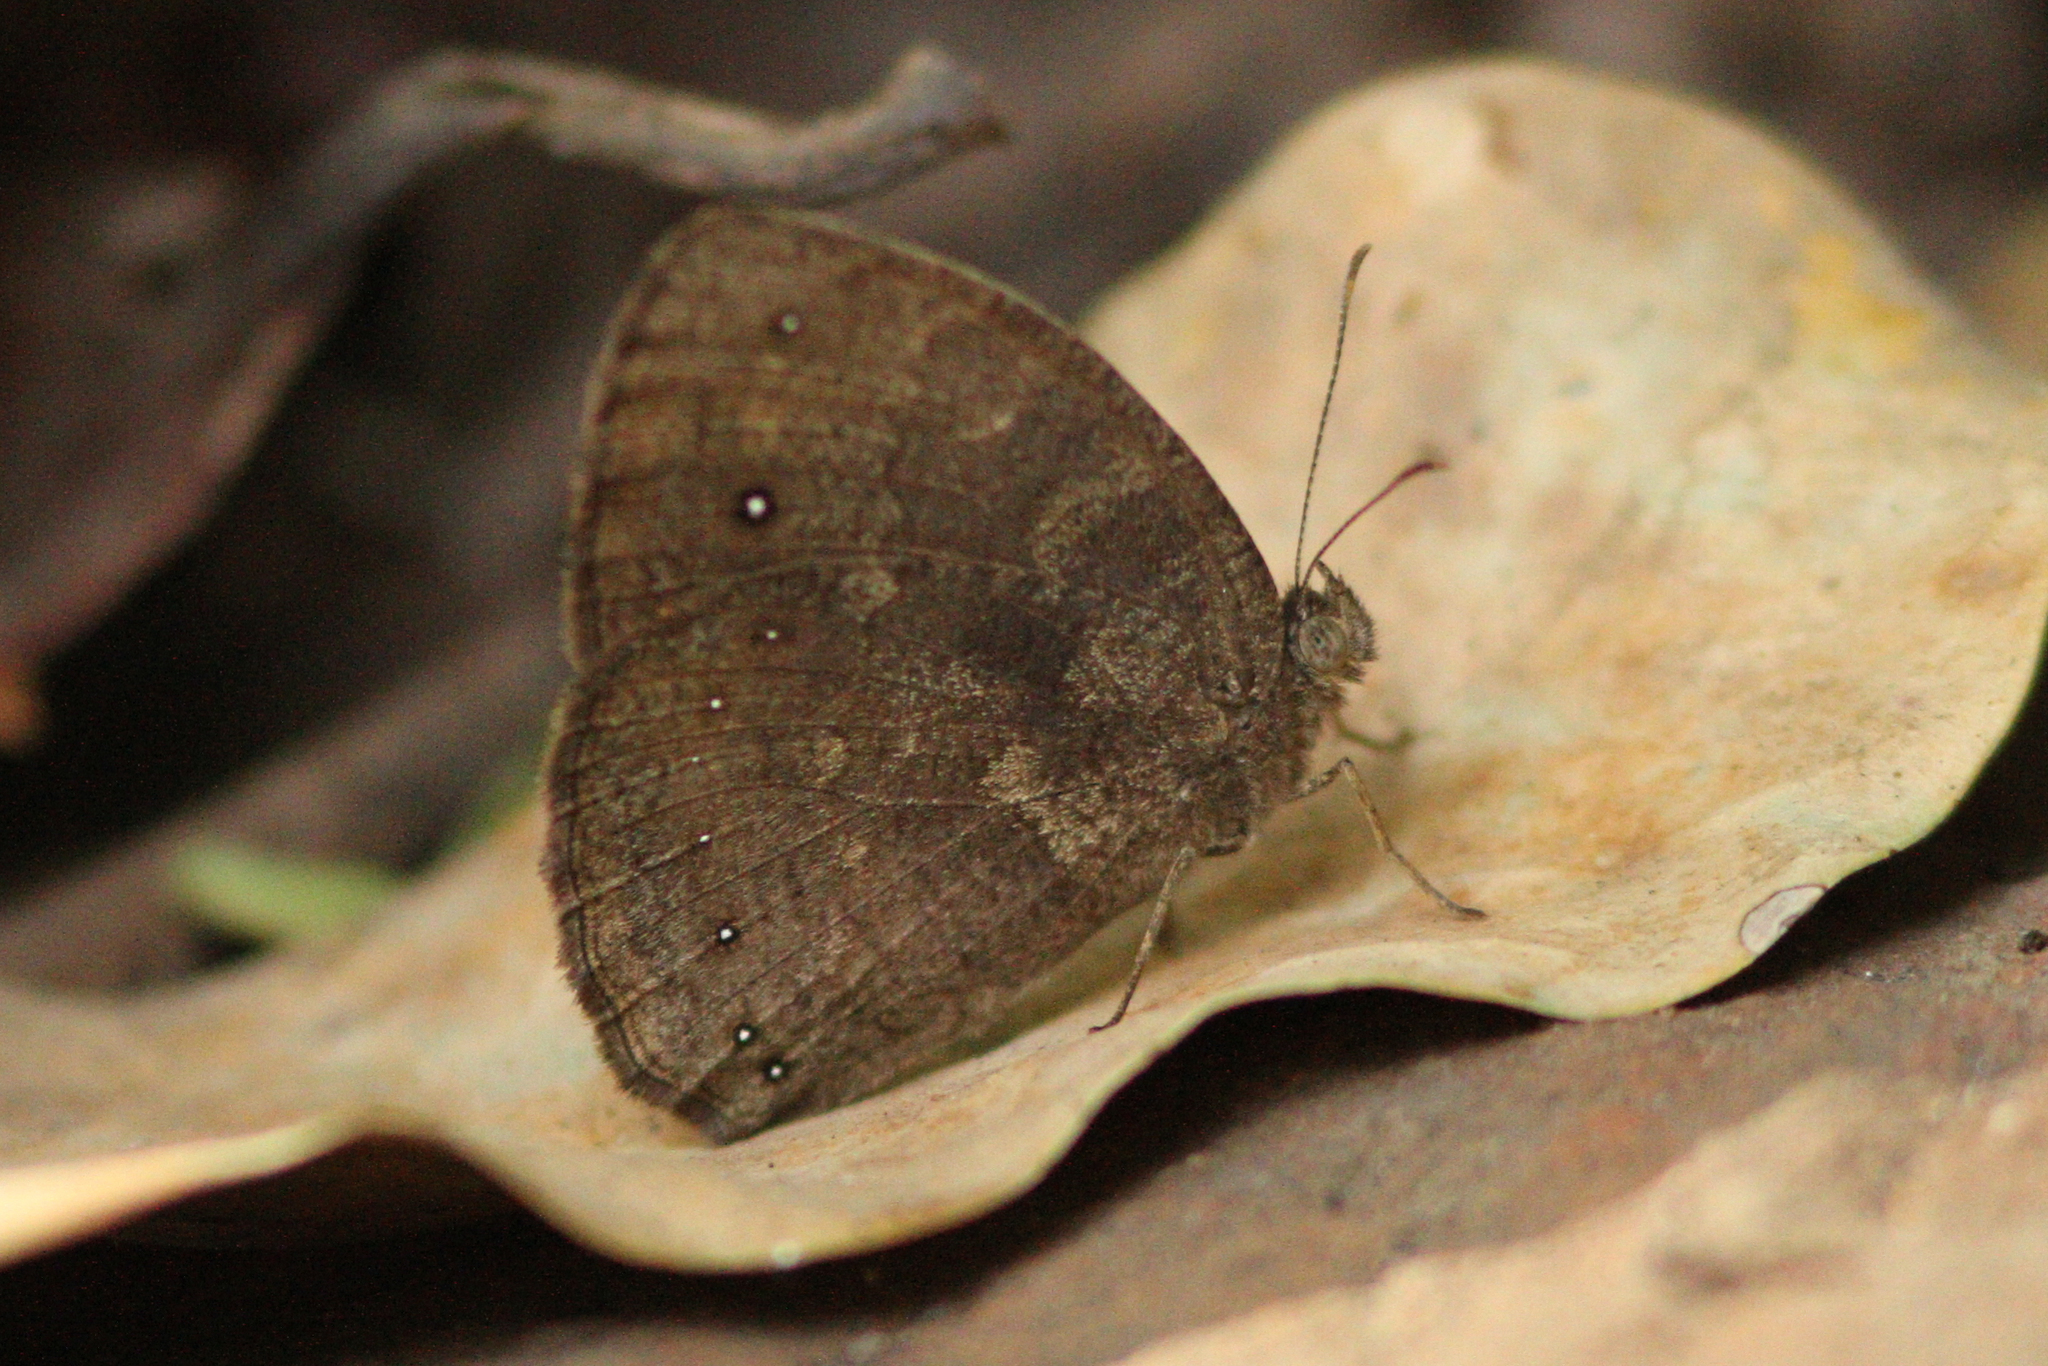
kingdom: Animalia
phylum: Arthropoda
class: Insecta
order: Lepidoptera
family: Nymphalidae
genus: Mycalesis
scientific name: Mycalesis vulgaris
